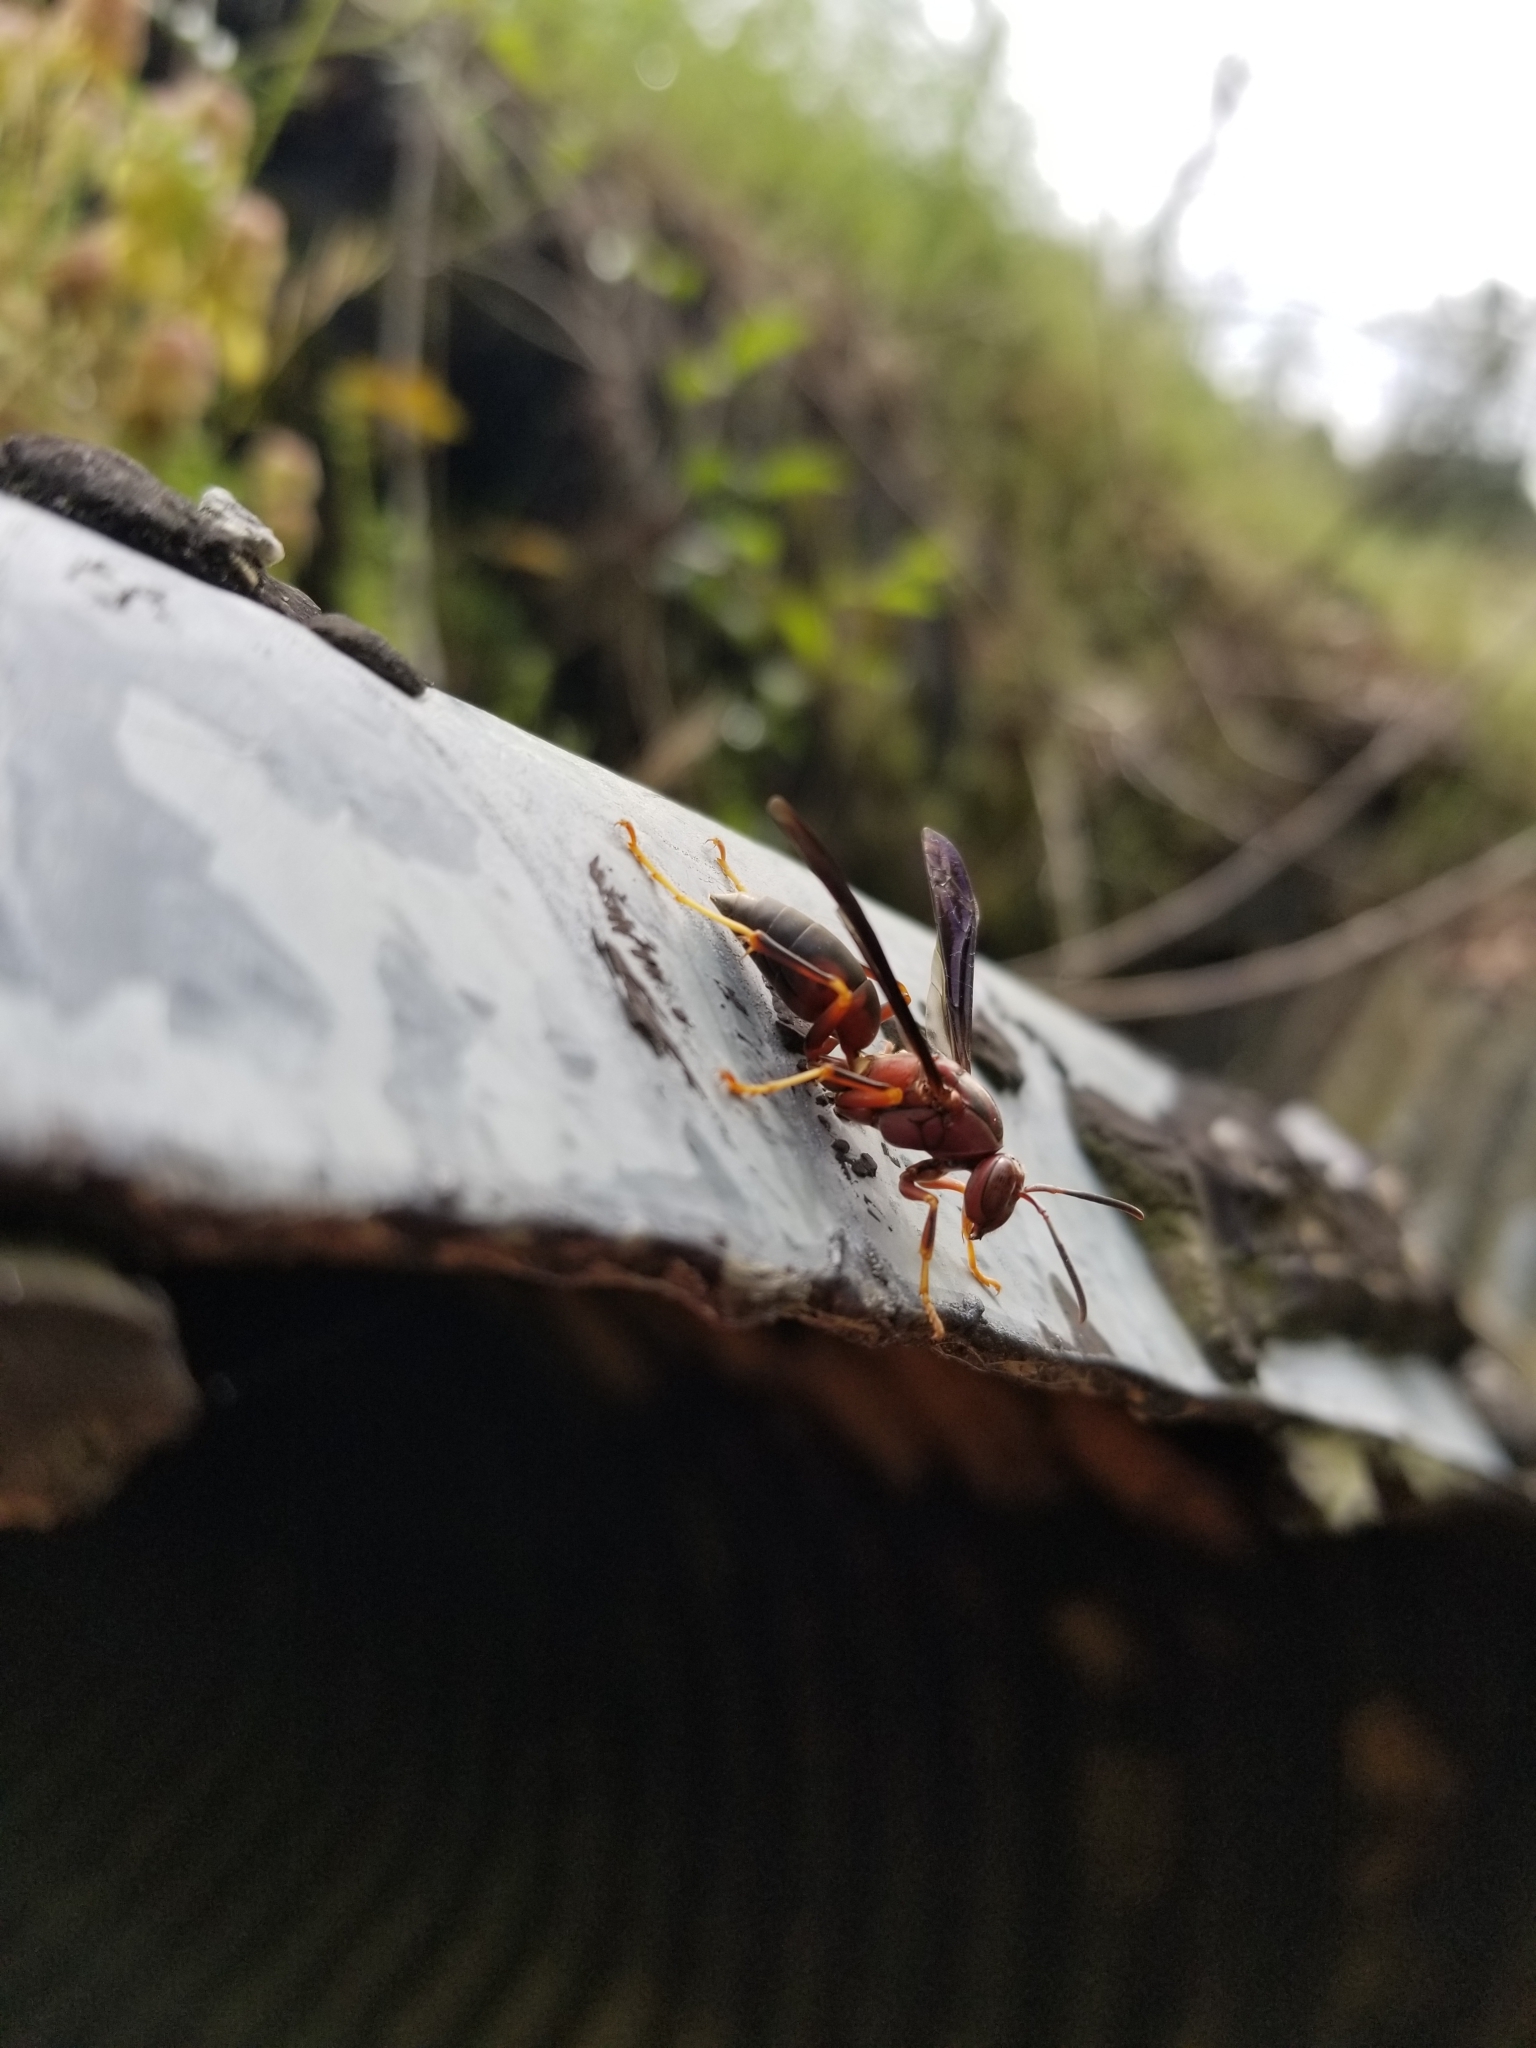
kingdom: Animalia
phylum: Arthropoda
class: Insecta
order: Hymenoptera
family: Eumenidae
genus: Polistes
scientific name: Polistes metricus
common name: Metric paper wasp
